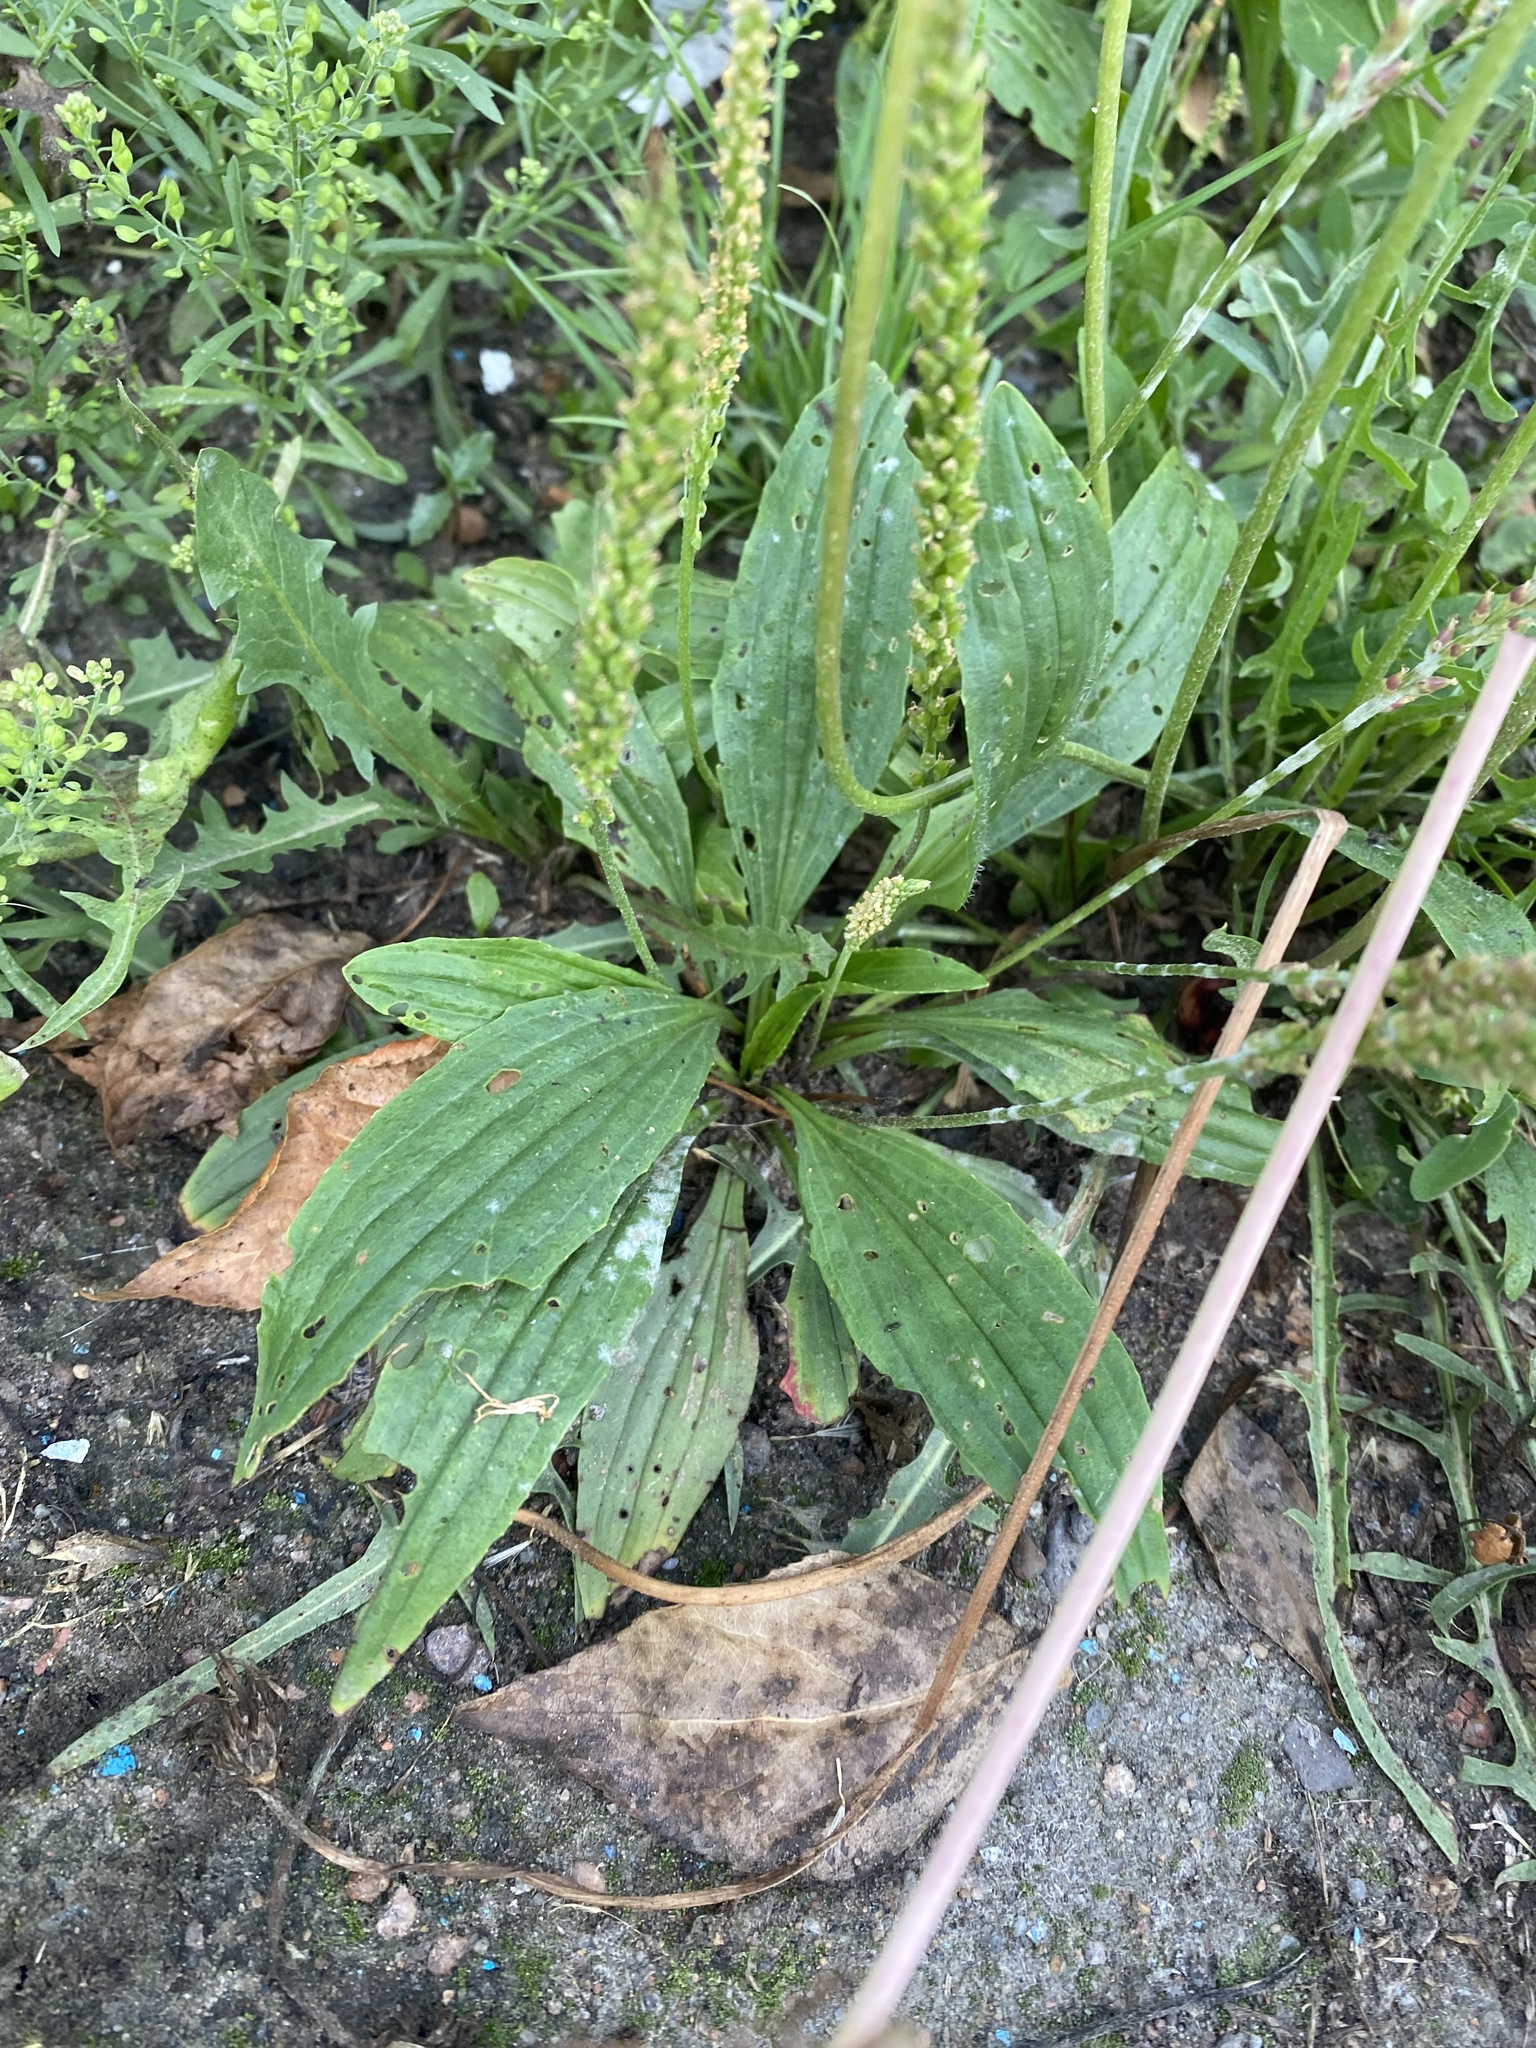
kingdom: Plantae
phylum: Tracheophyta
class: Magnoliopsida
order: Lamiales
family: Plantaginaceae
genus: Plantago
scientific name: Plantago depressa
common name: Depressed plantain
